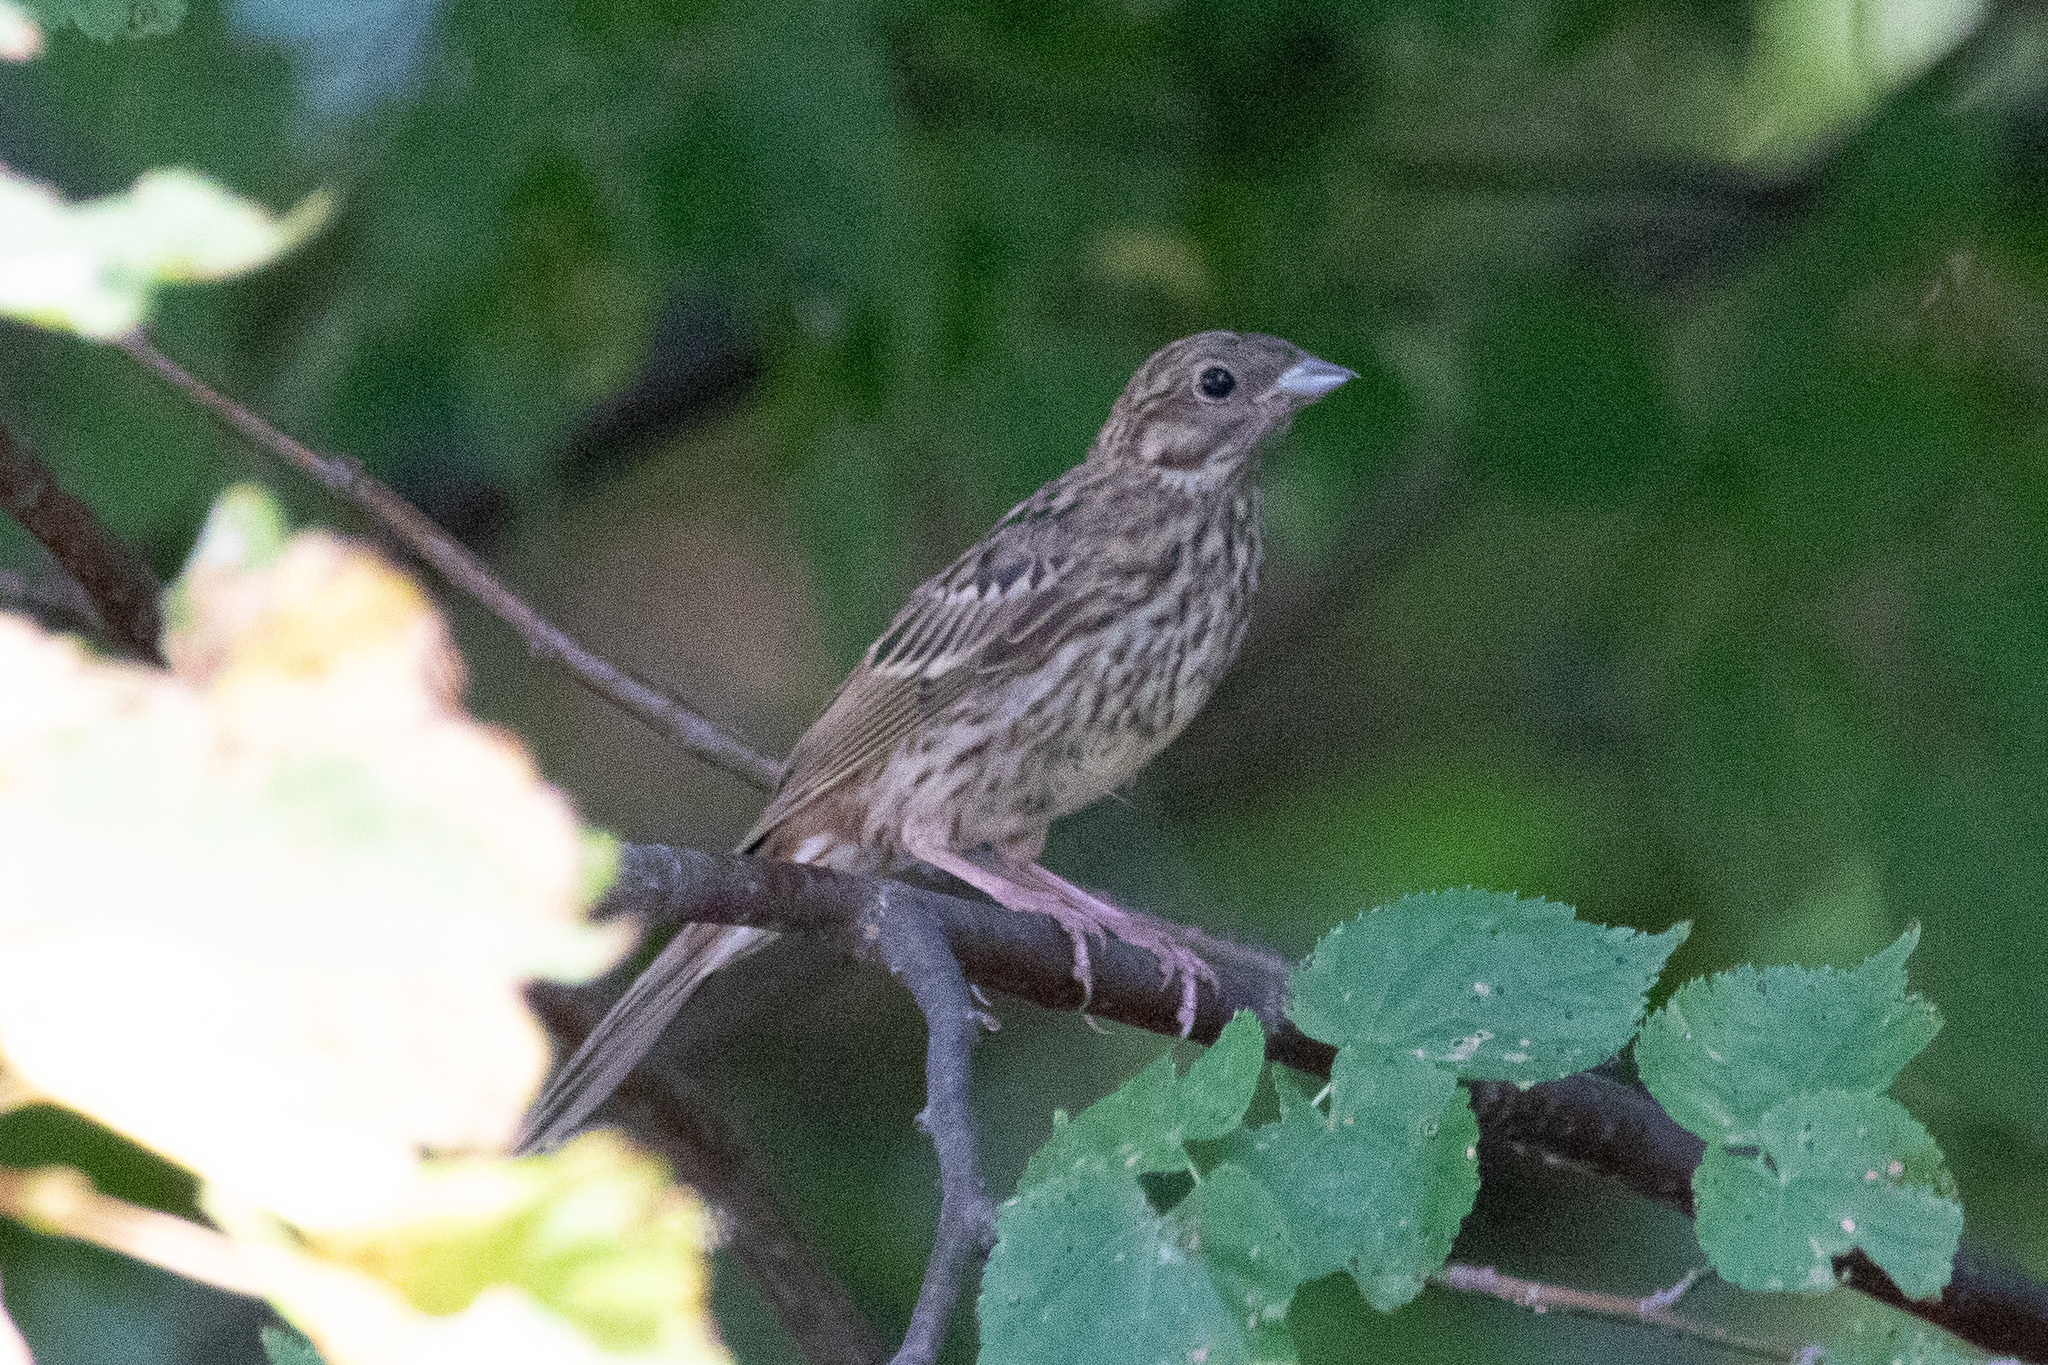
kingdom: Animalia
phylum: Chordata
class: Aves
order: Passeriformes
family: Emberizidae
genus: Emberiza
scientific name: Emberiza citrinella
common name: Yellowhammer
